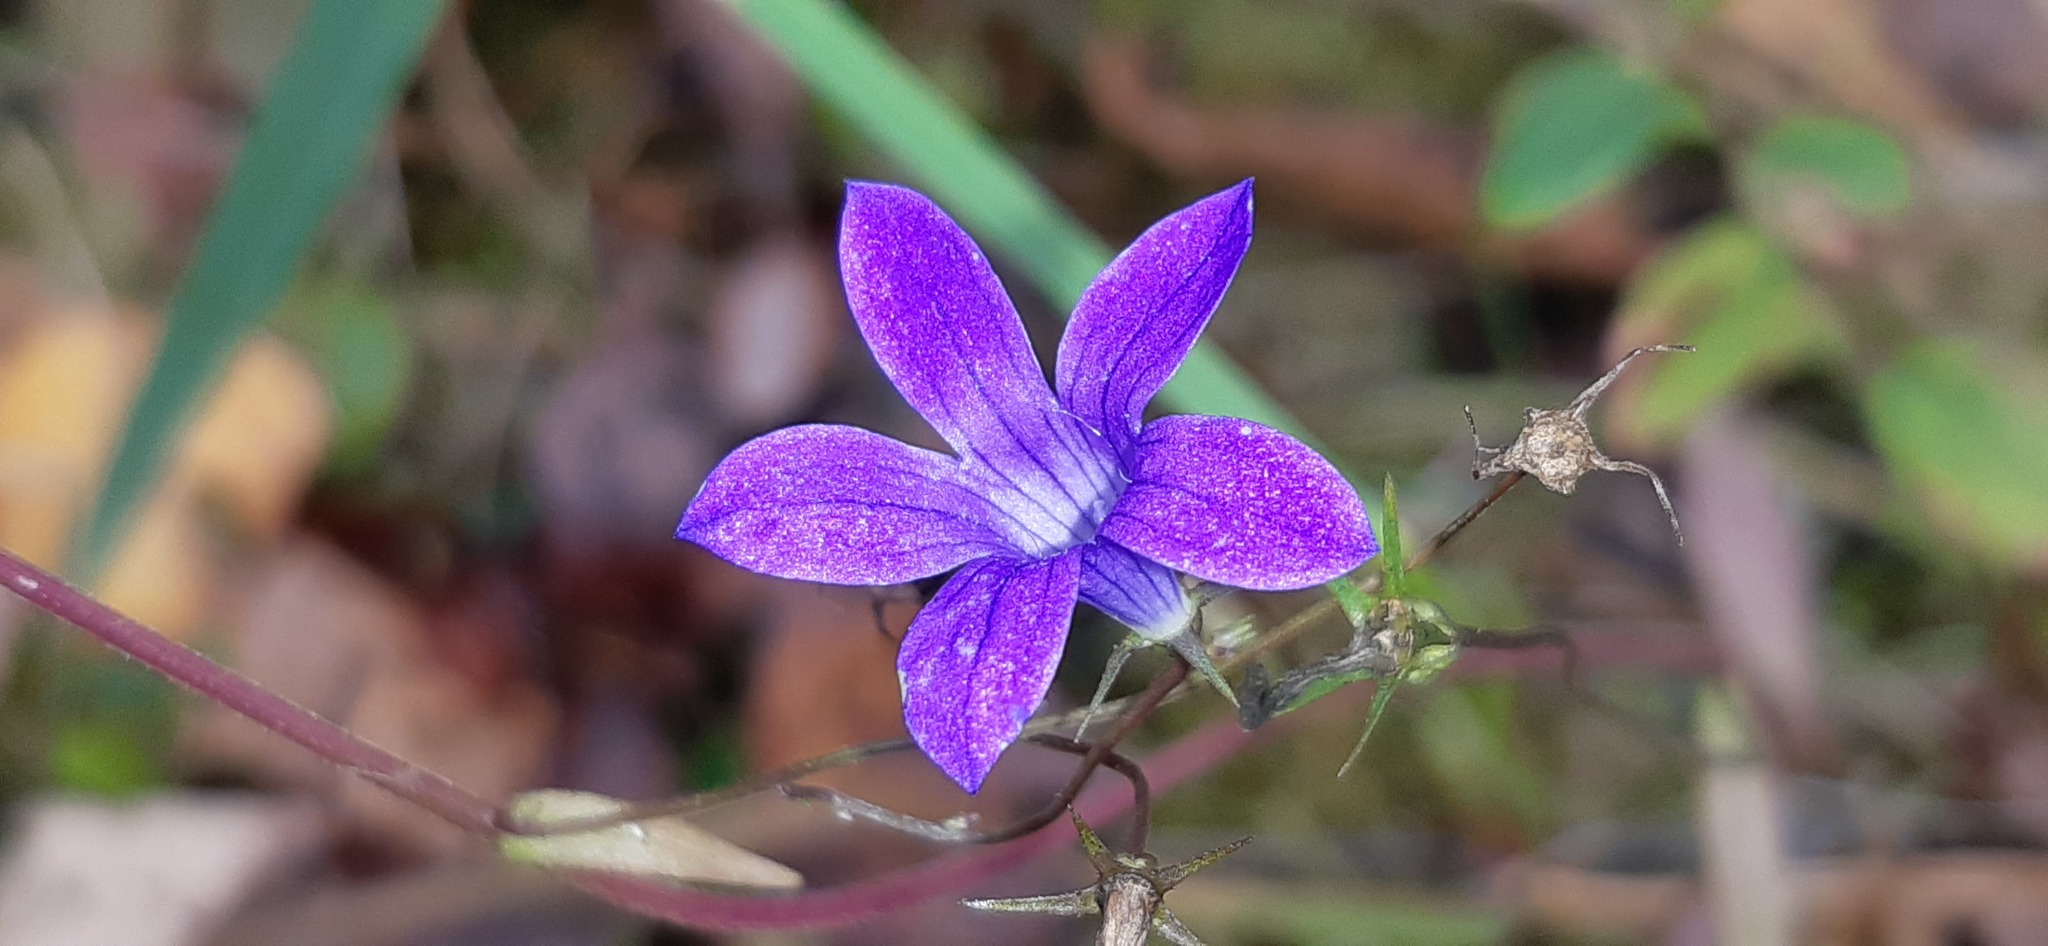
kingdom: Plantae
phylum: Tracheophyta
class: Magnoliopsida
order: Asterales
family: Campanulaceae
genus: Campanula
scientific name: Campanula patula
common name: Spreading bellflower
